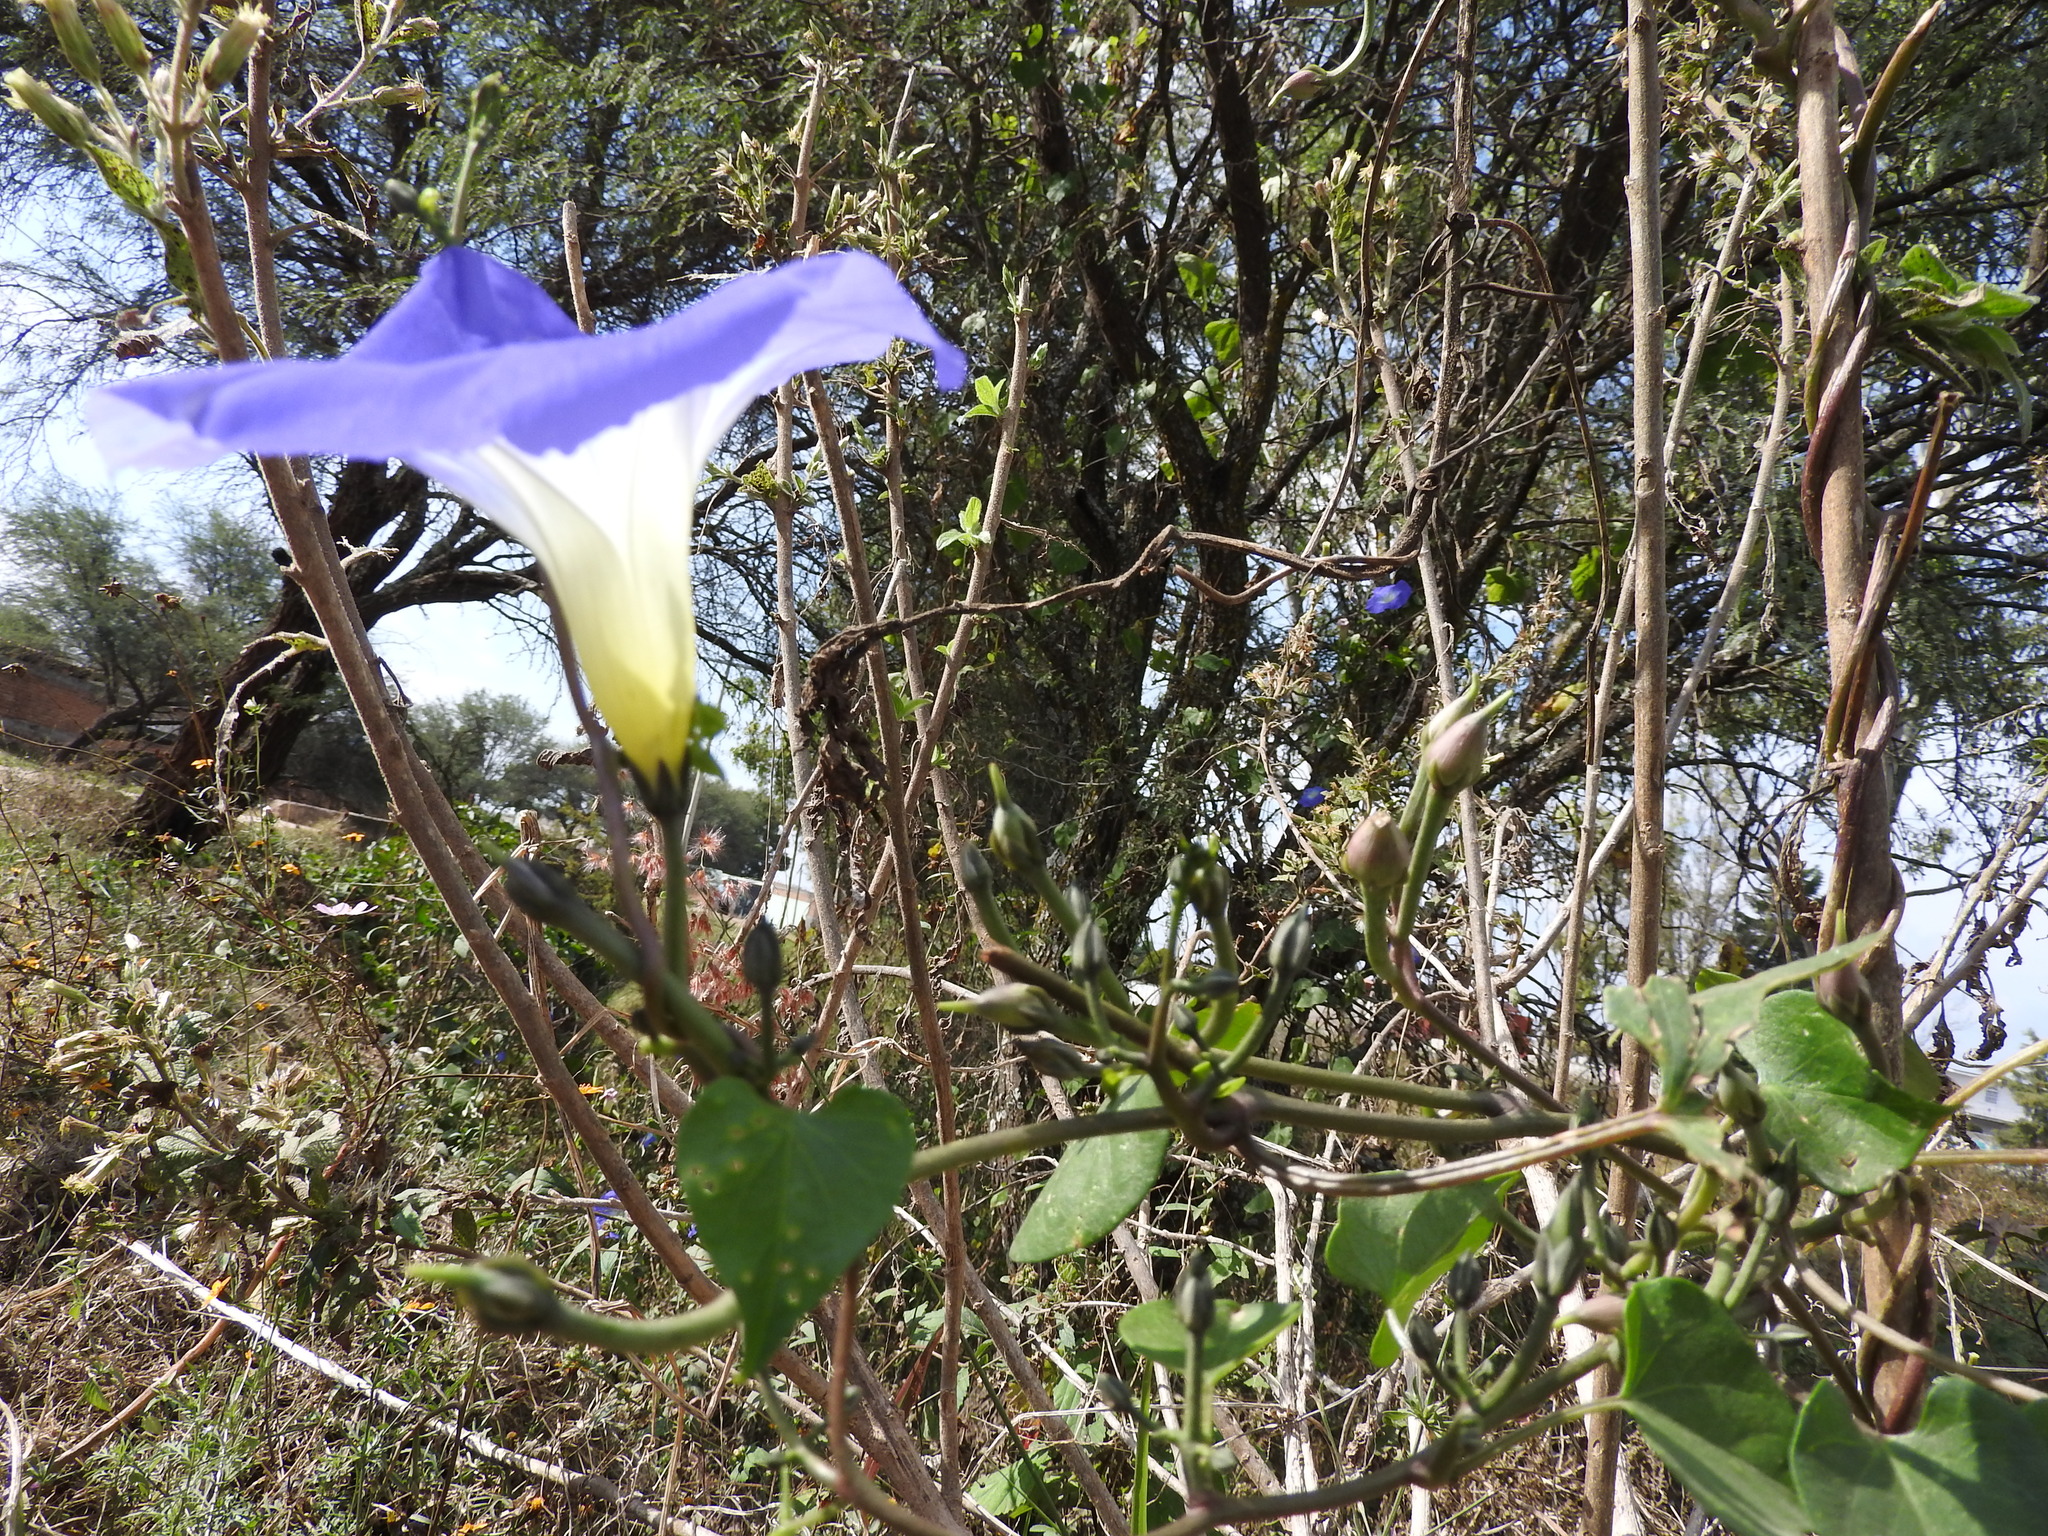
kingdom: Plantae
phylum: Tracheophyta
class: Magnoliopsida
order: Solanales
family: Convolvulaceae
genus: Ipomoea
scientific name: Ipomoea tricolor
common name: Morning-glory
